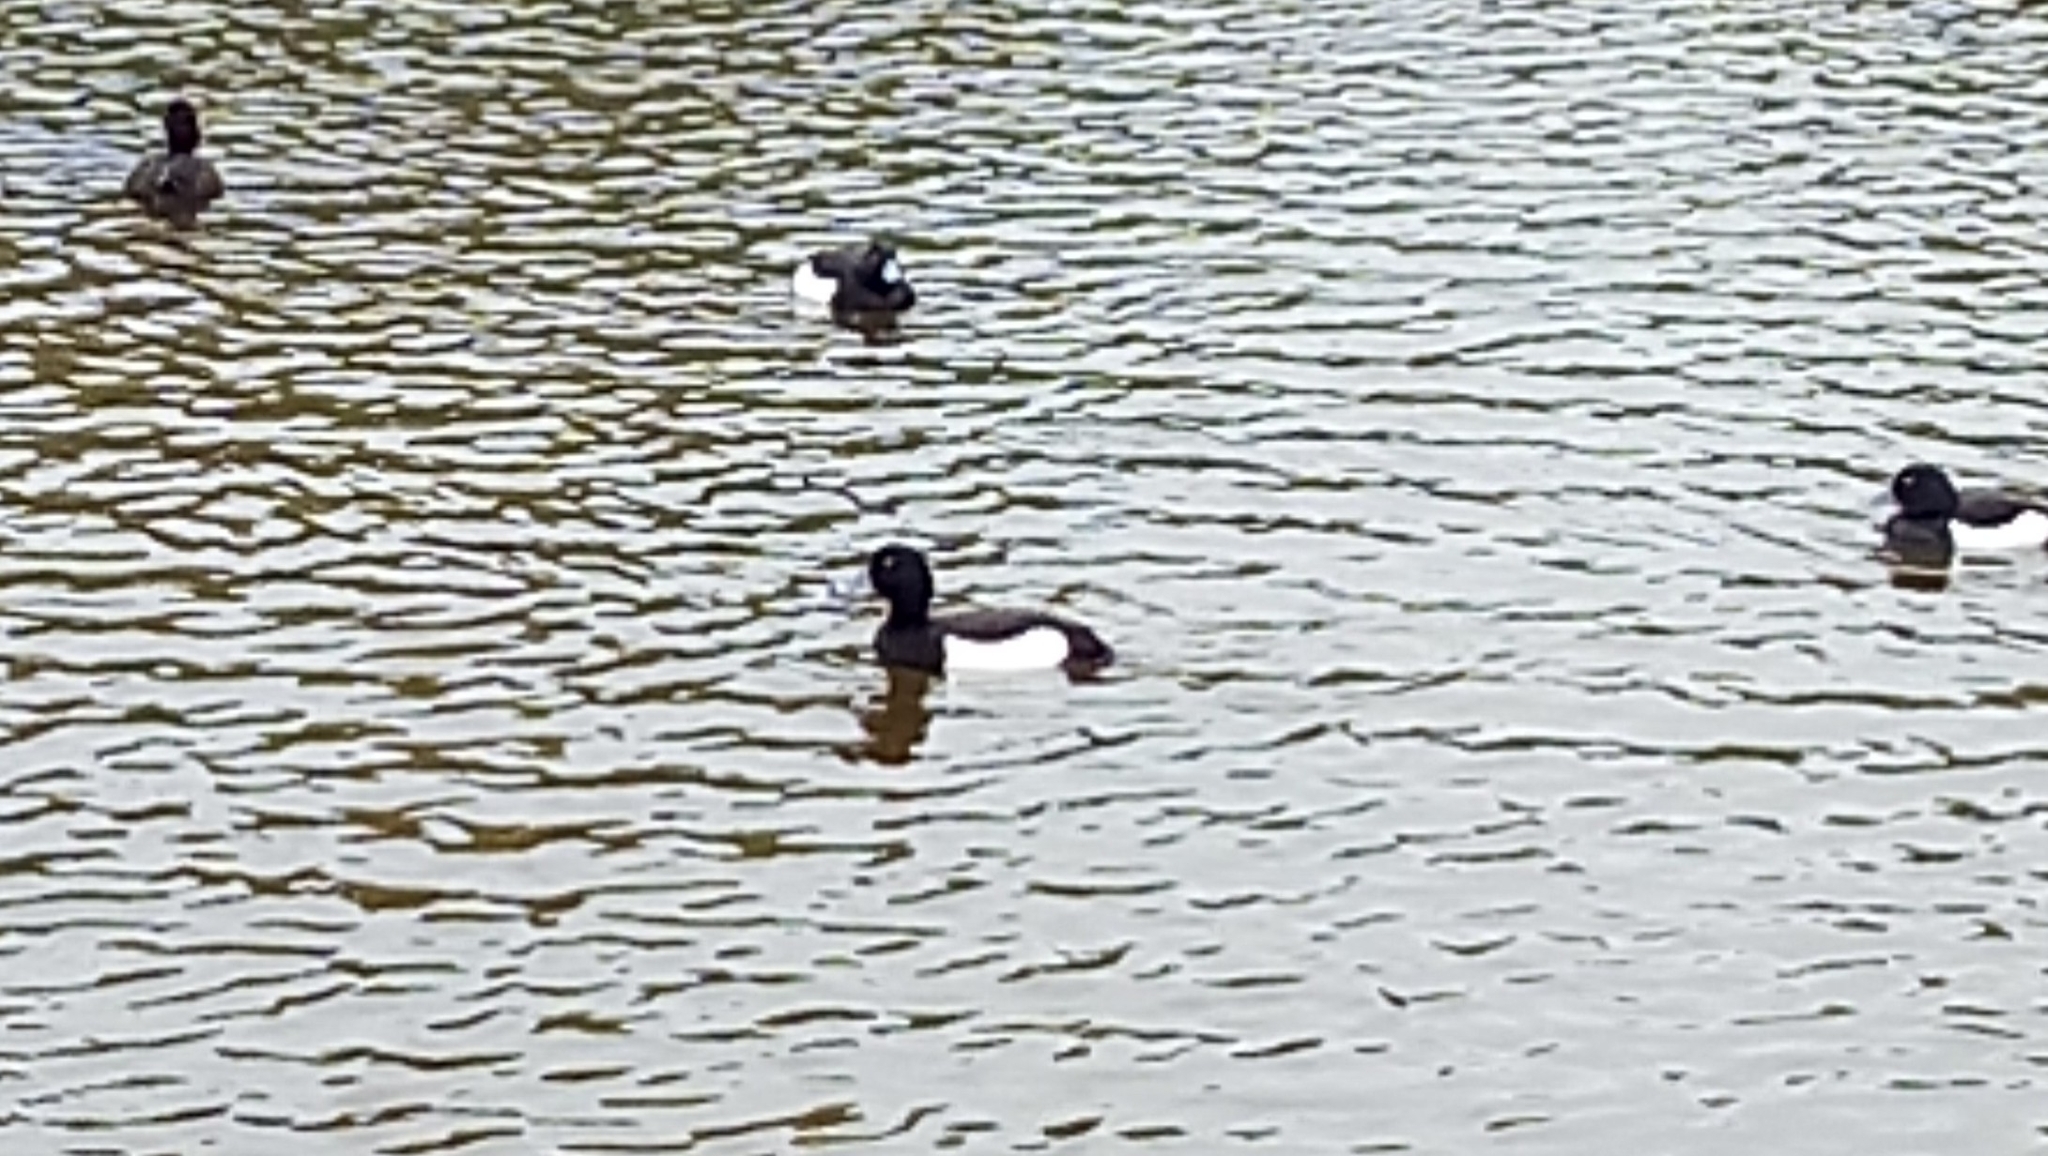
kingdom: Animalia
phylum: Chordata
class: Aves
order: Anseriformes
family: Anatidae
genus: Aythya
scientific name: Aythya fuligula
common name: Tufted duck
